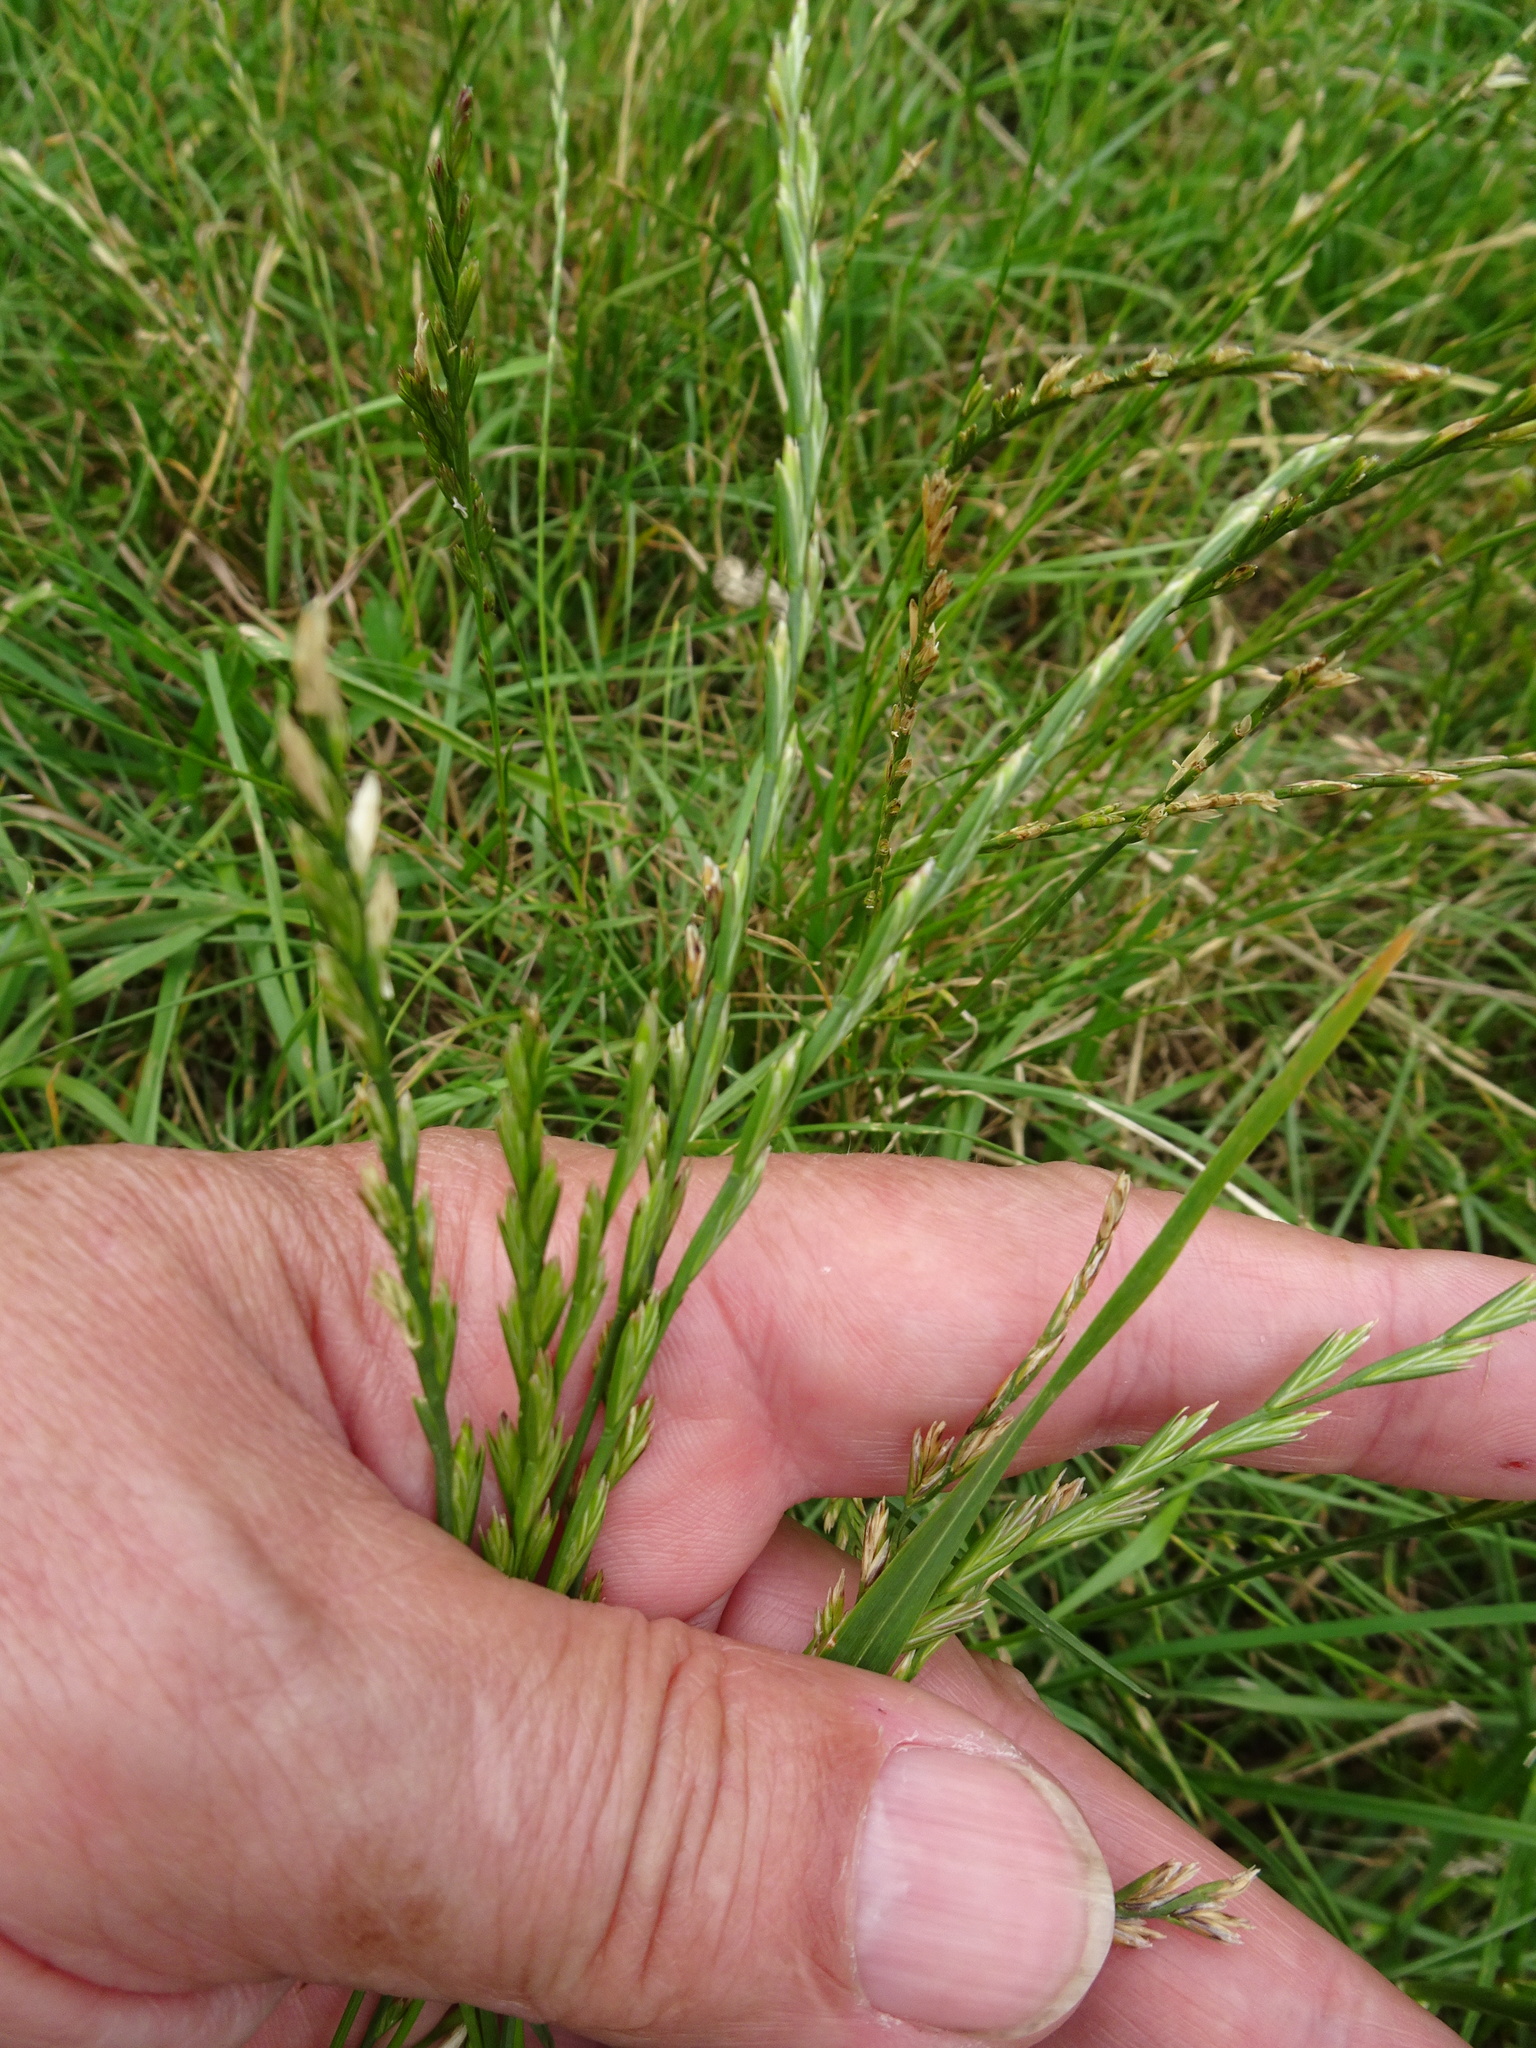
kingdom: Plantae
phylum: Tracheophyta
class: Liliopsida
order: Poales
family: Poaceae
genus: Lolium
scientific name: Lolium perenne
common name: Perennial ryegrass
